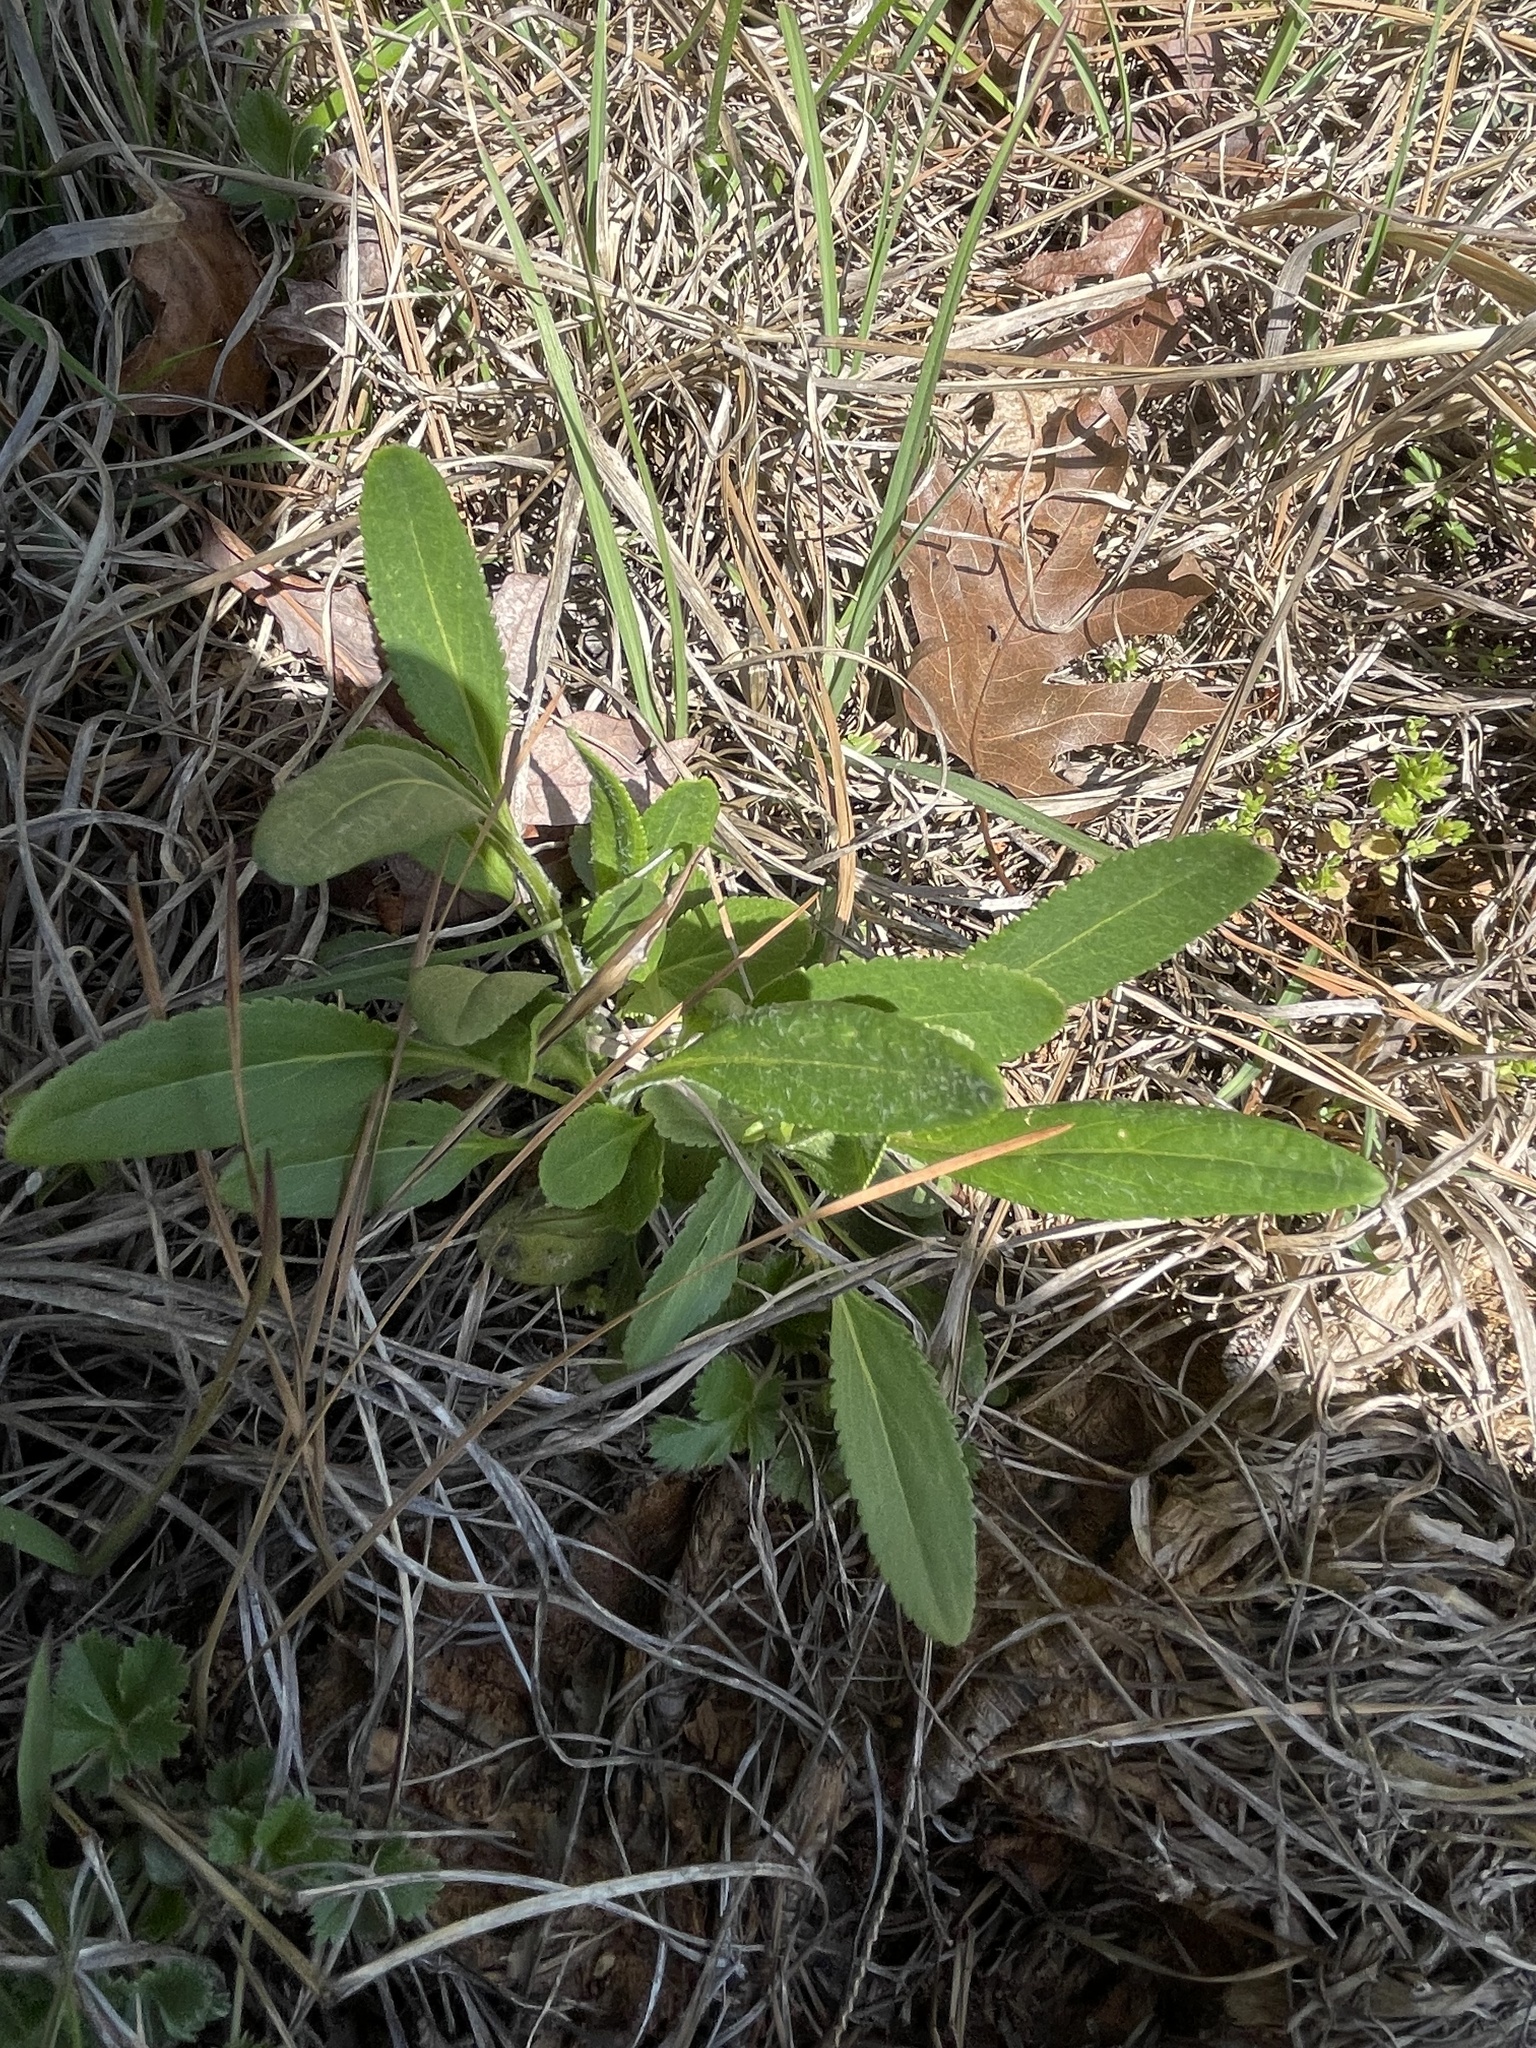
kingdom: Plantae
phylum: Tracheophyta
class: Magnoliopsida
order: Asterales
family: Asteraceae
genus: Packera
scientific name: Packera anonyma
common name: Small ragwort
